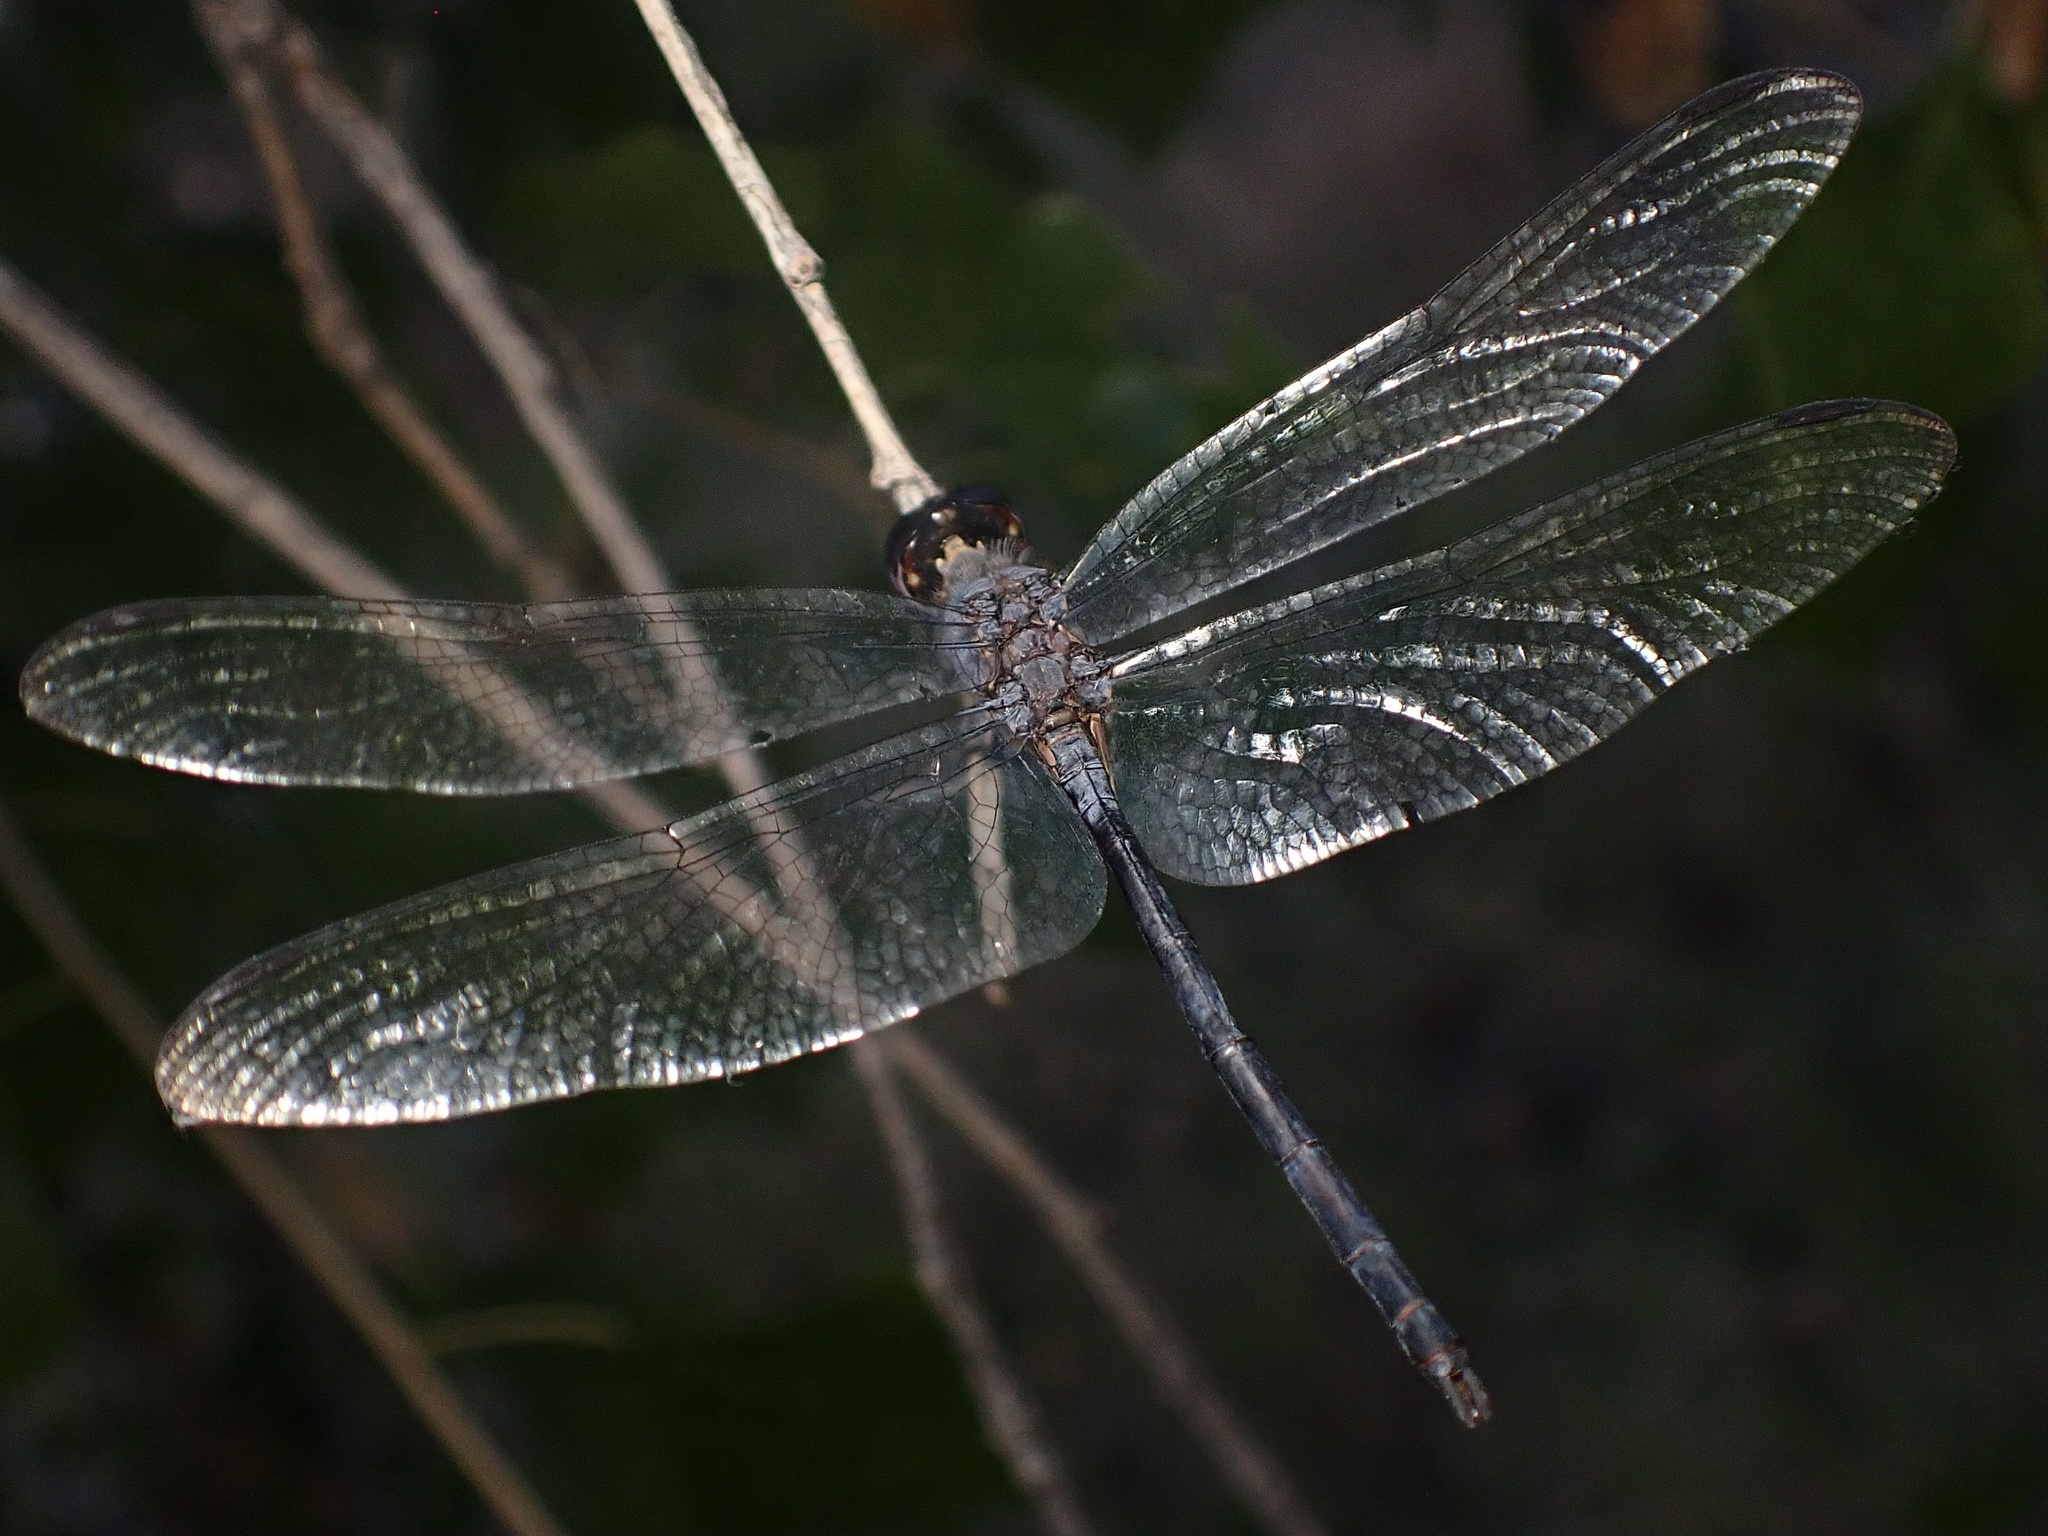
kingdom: Animalia
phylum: Arthropoda
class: Insecta
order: Odonata
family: Libellulidae
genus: Dythemis
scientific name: Dythemis nigrescens
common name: Black setwing
